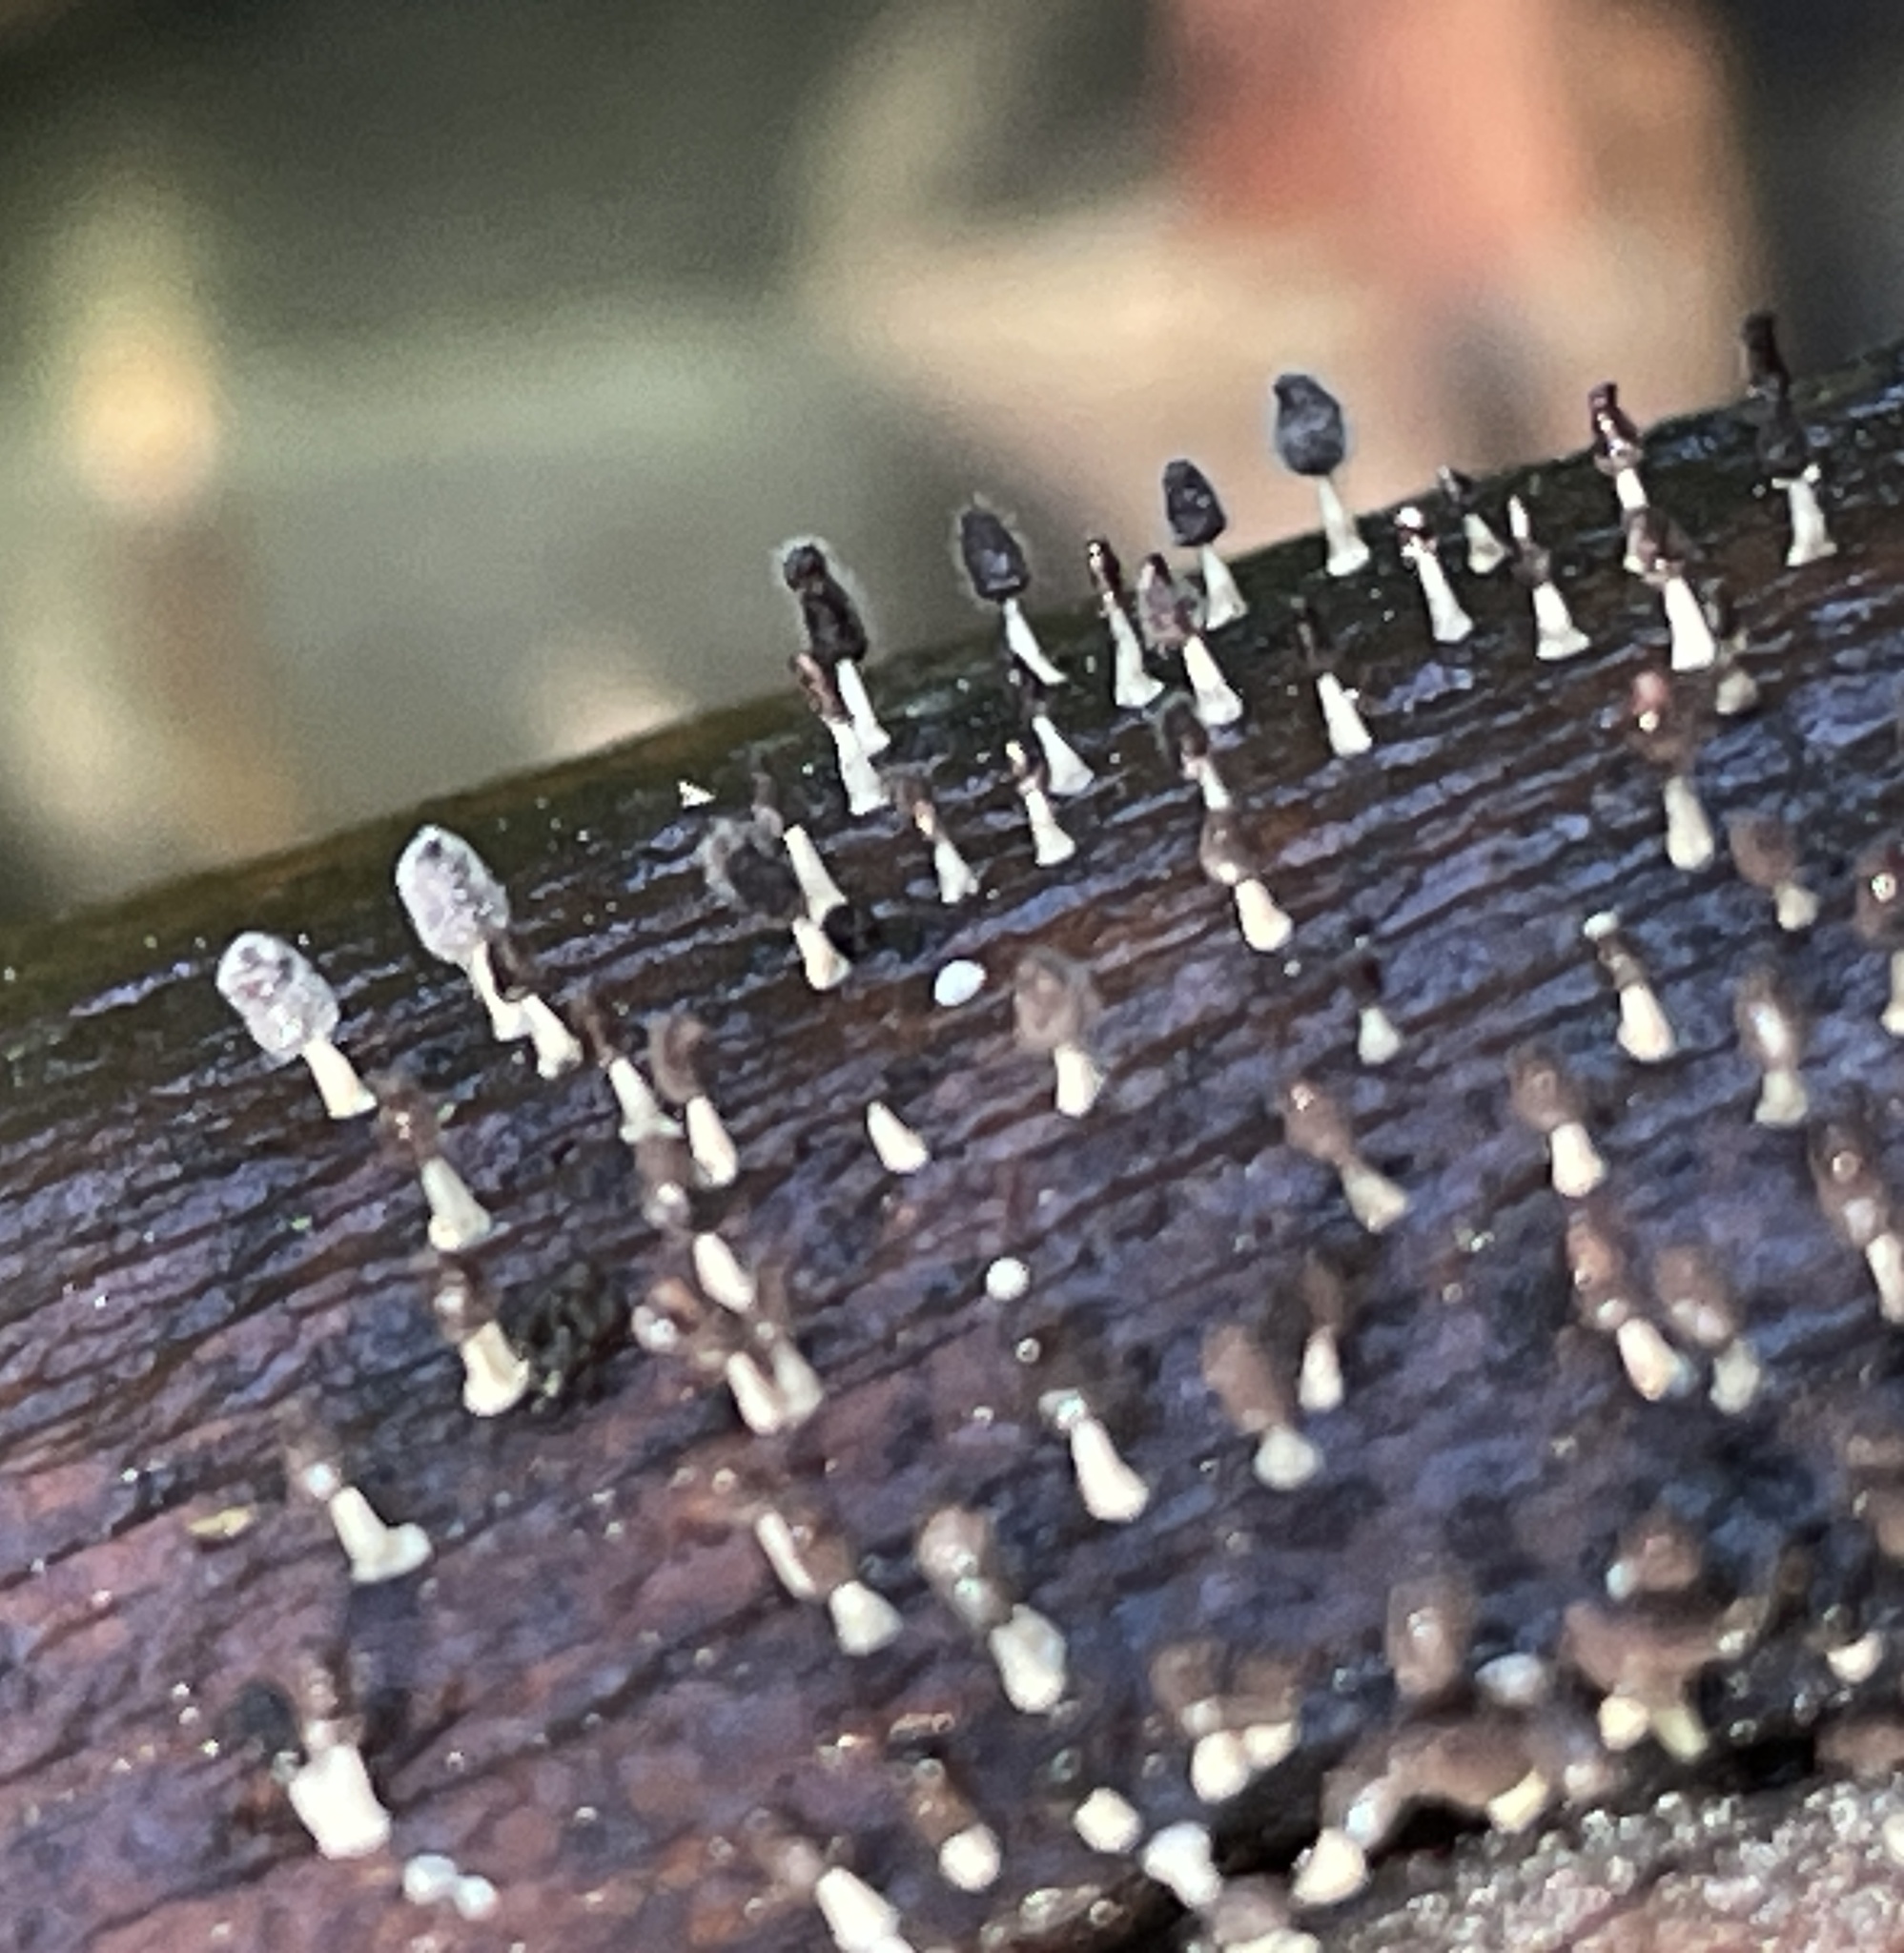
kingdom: Protozoa
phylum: Mycetozoa
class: Myxomycetes
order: Physarales
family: Didymiaceae
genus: Diachea
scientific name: Diachea leucopodia
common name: White-footed slime
